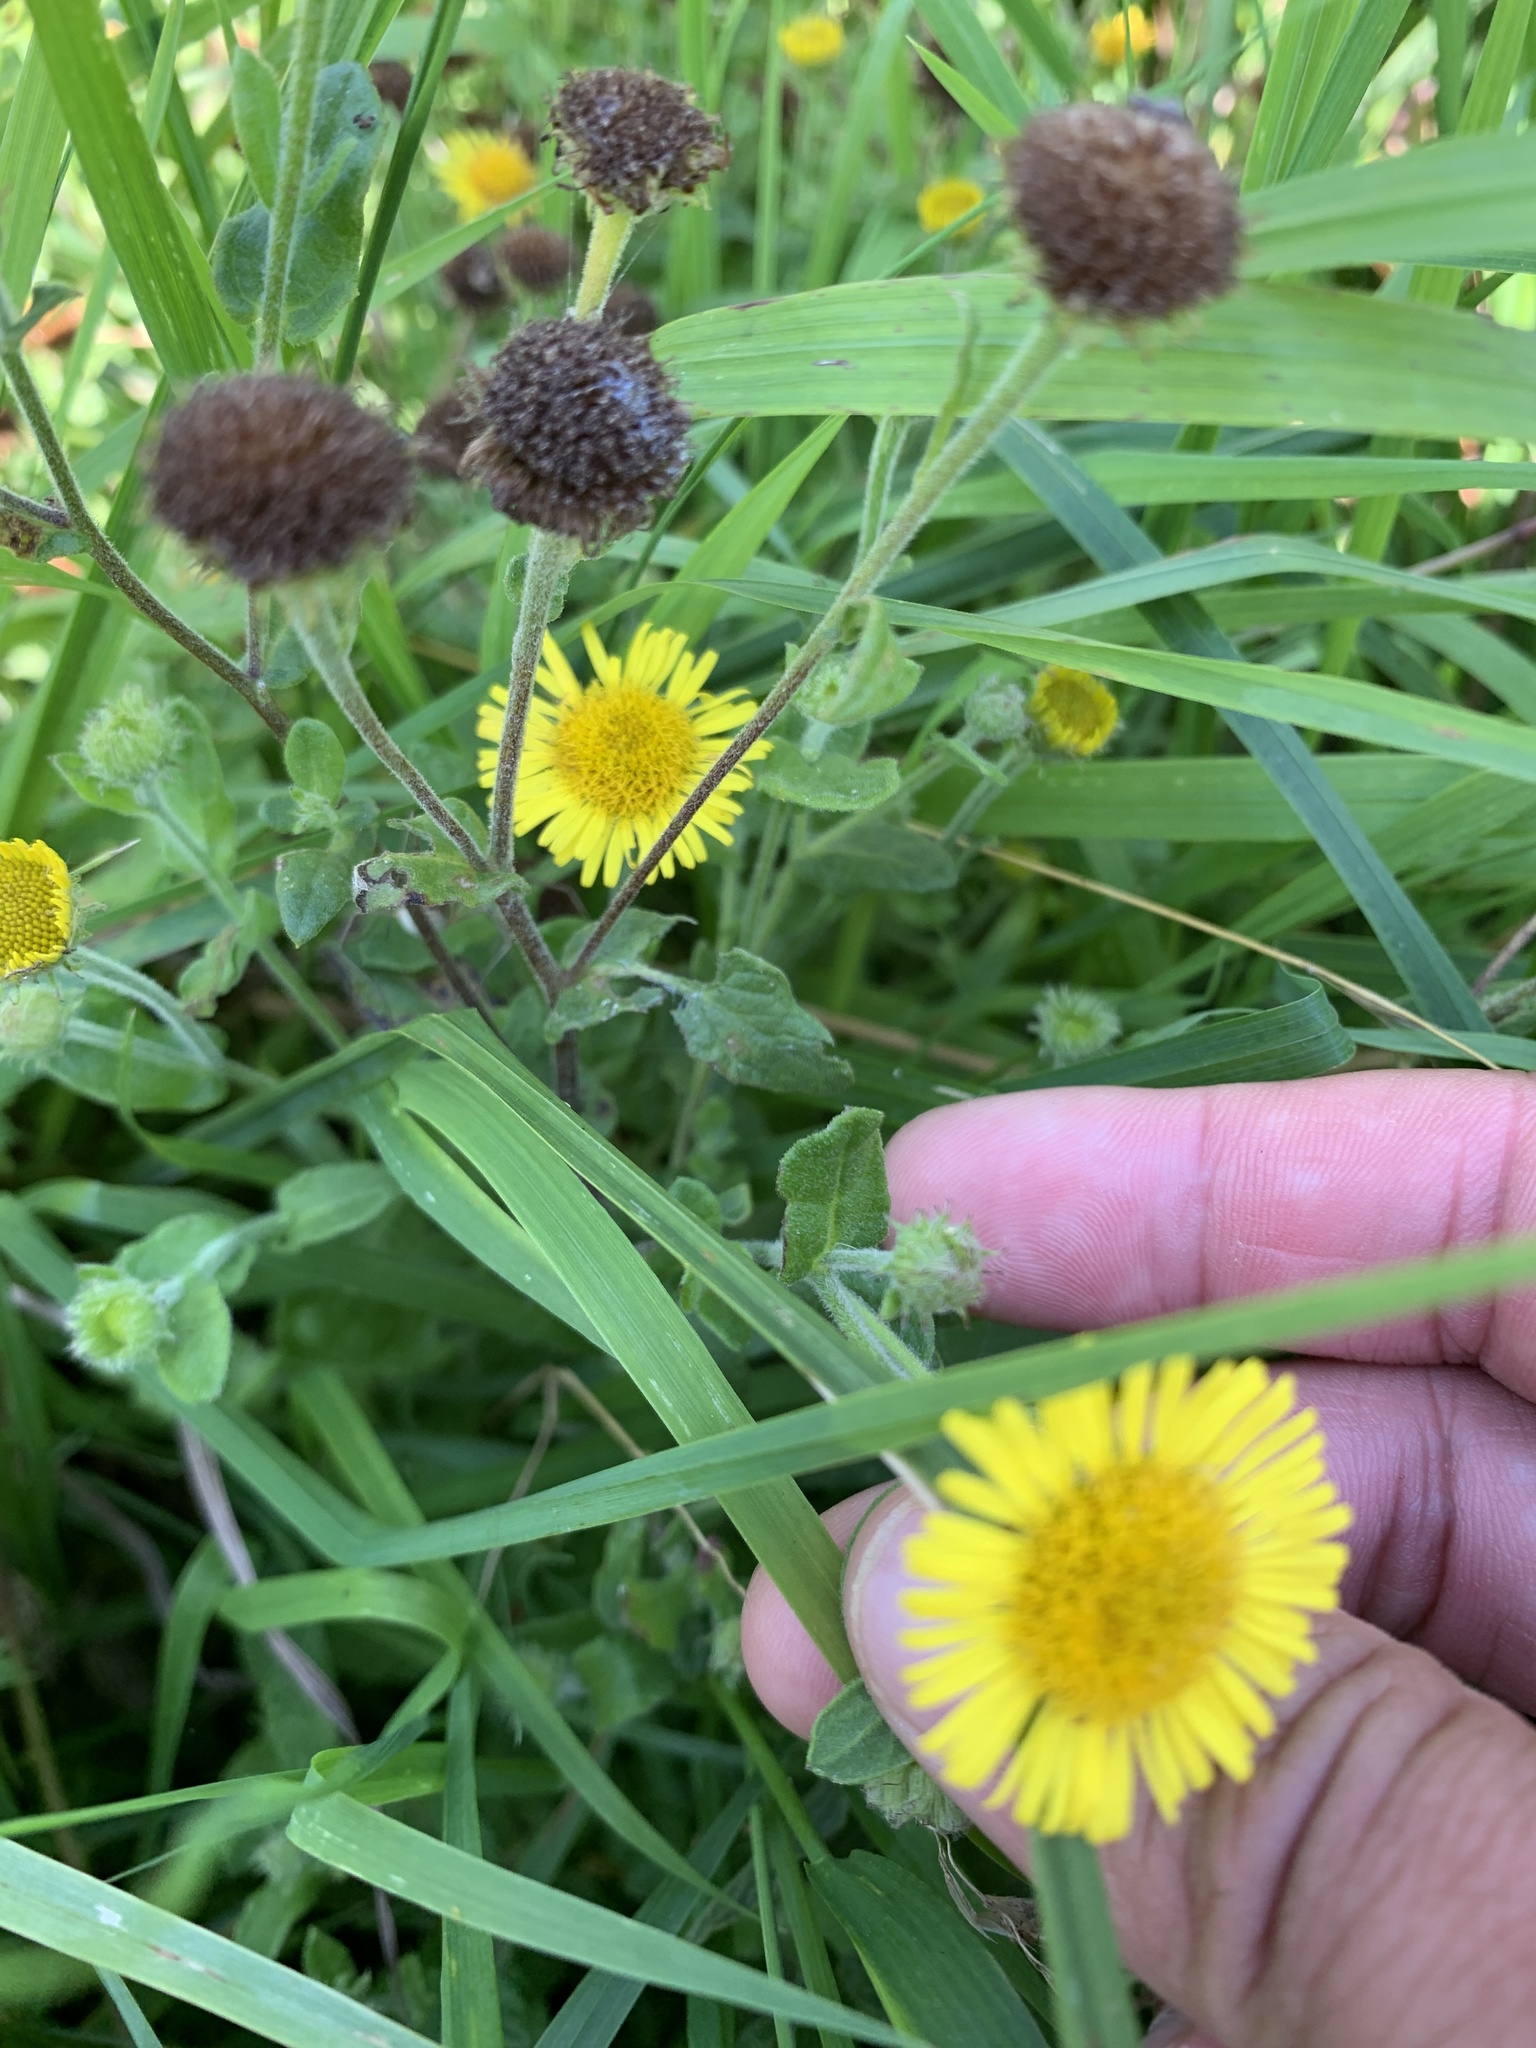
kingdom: Plantae
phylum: Tracheophyta
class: Magnoliopsida
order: Asterales
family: Asteraceae
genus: Pulicaria
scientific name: Pulicaria dysenterica
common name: Common fleabane
